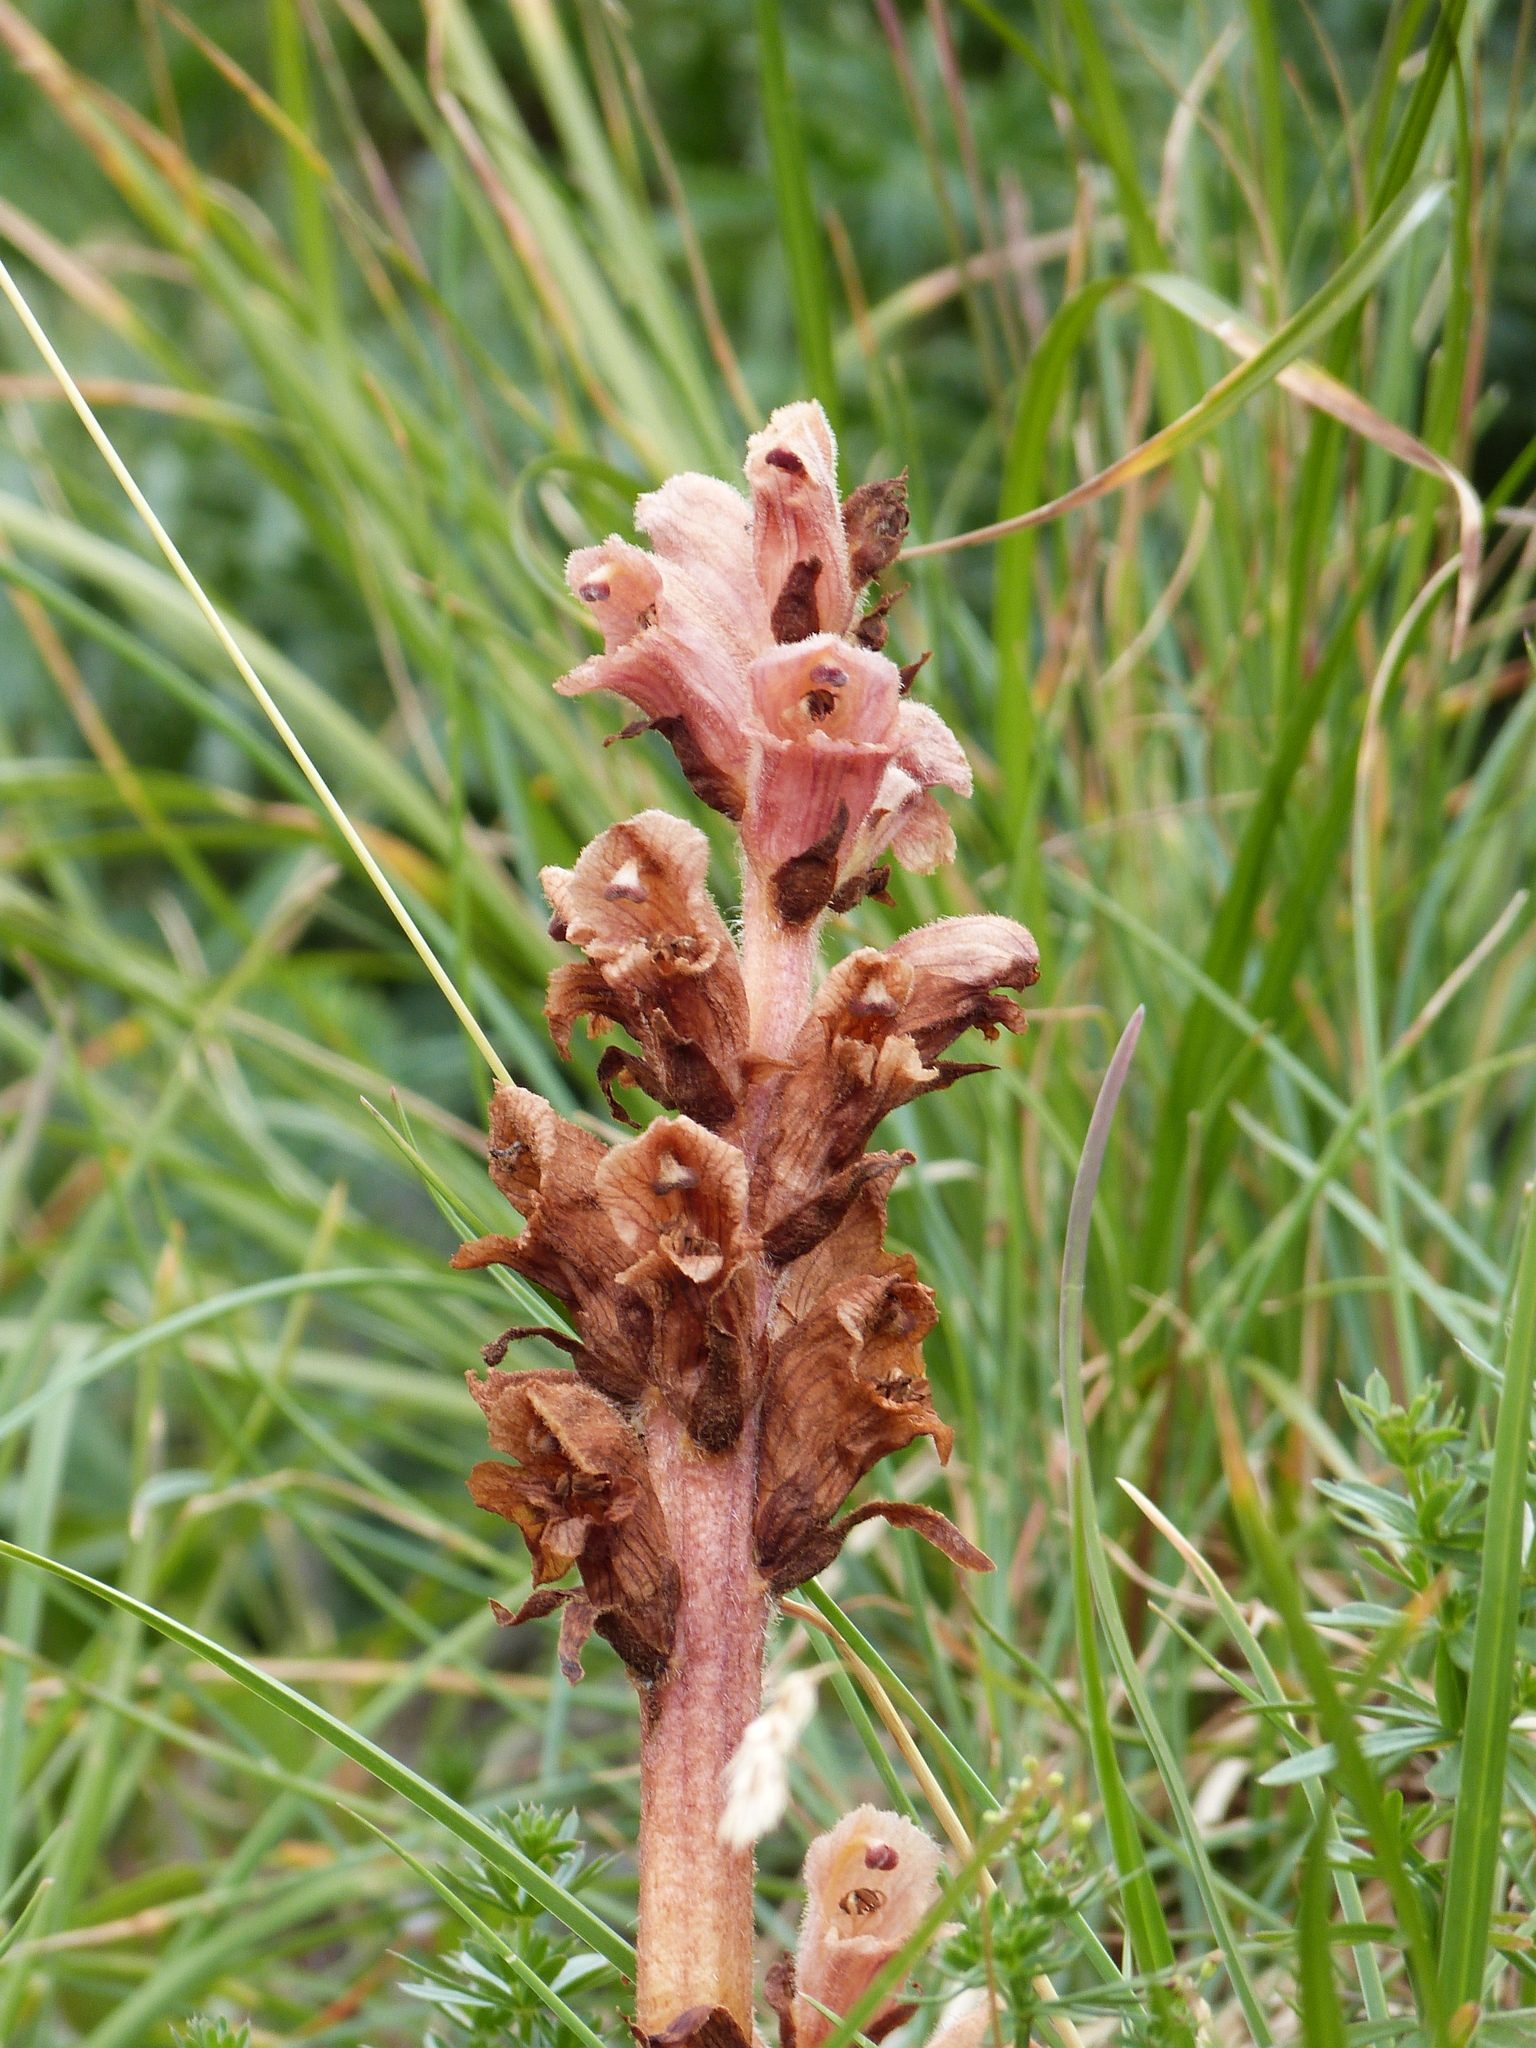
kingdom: Plantae
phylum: Tracheophyta
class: Magnoliopsida
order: Lamiales
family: Orobanchaceae
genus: Orobanche
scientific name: Orobanche caryophyllacea
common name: Bedstraw broomrape
